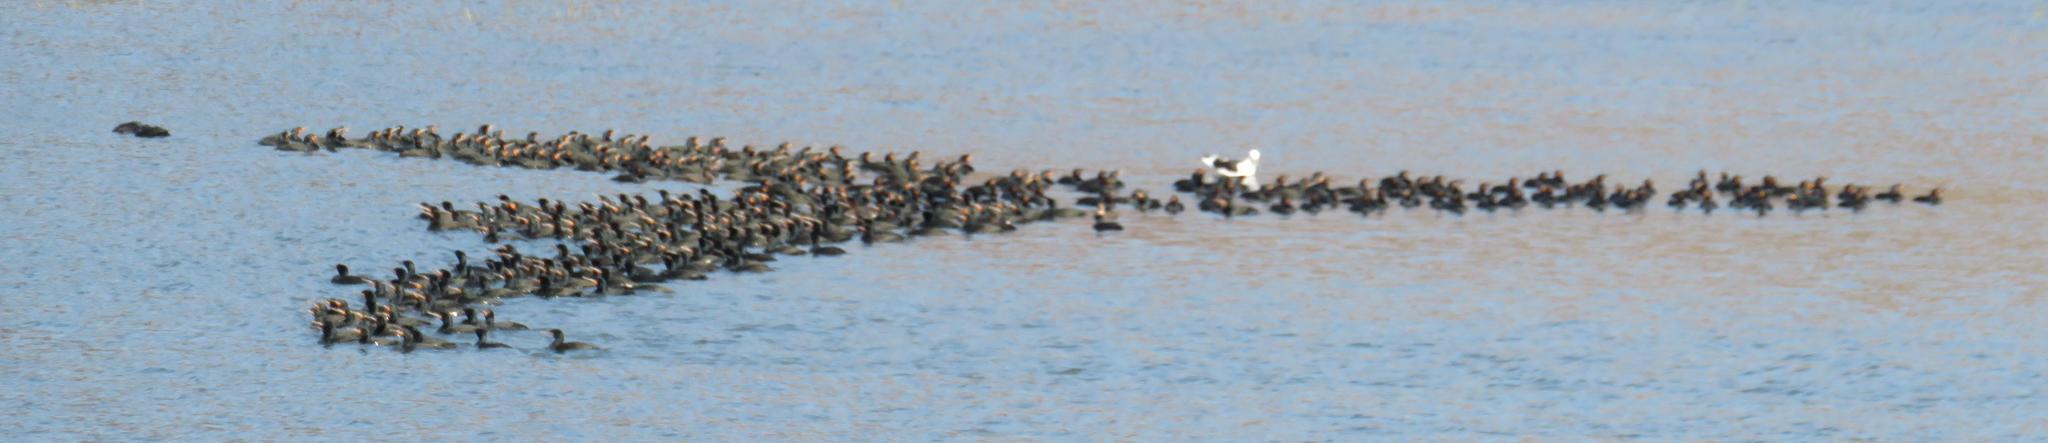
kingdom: Animalia
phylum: Chordata
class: Aves
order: Suliformes
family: Phalacrocoracidae
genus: Phalacrocorax
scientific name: Phalacrocorax capensis
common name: Cape cormorant
